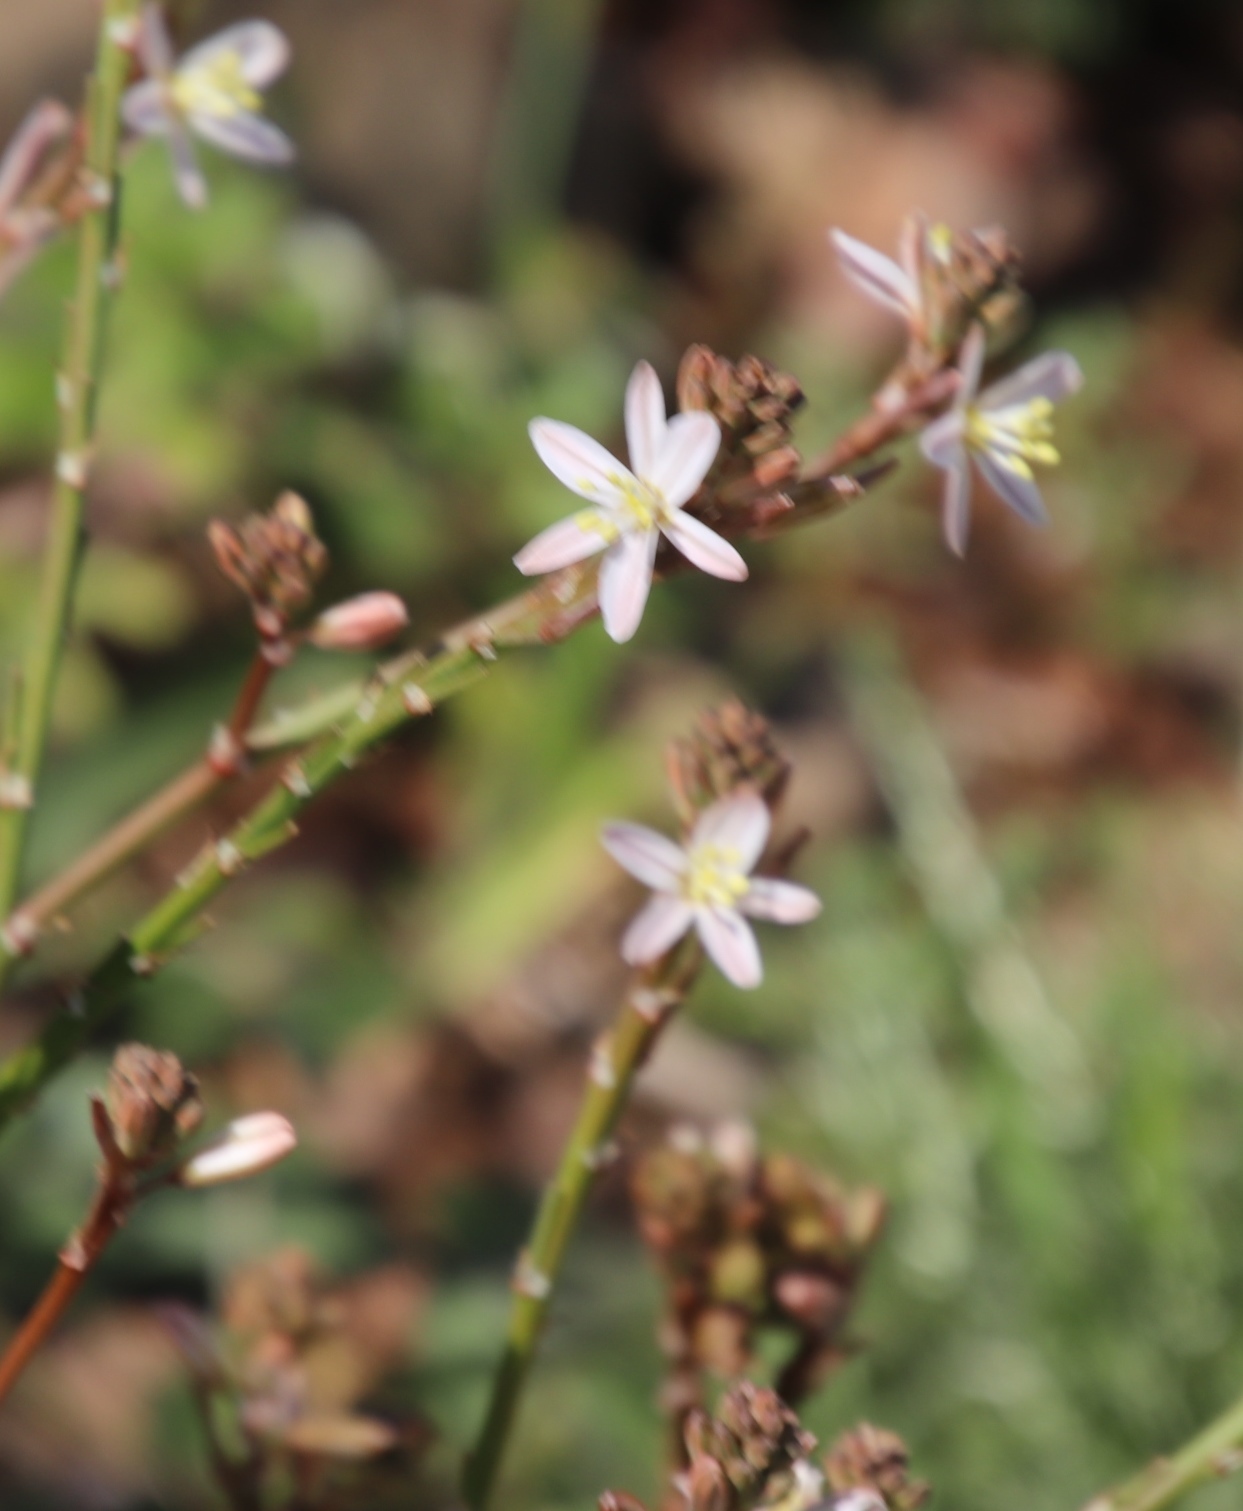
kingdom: Plantae
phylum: Tracheophyta
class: Liliopsida
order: Asparagales
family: Asphodelaceae
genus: Trachyandra
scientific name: Trachyandra muricata
